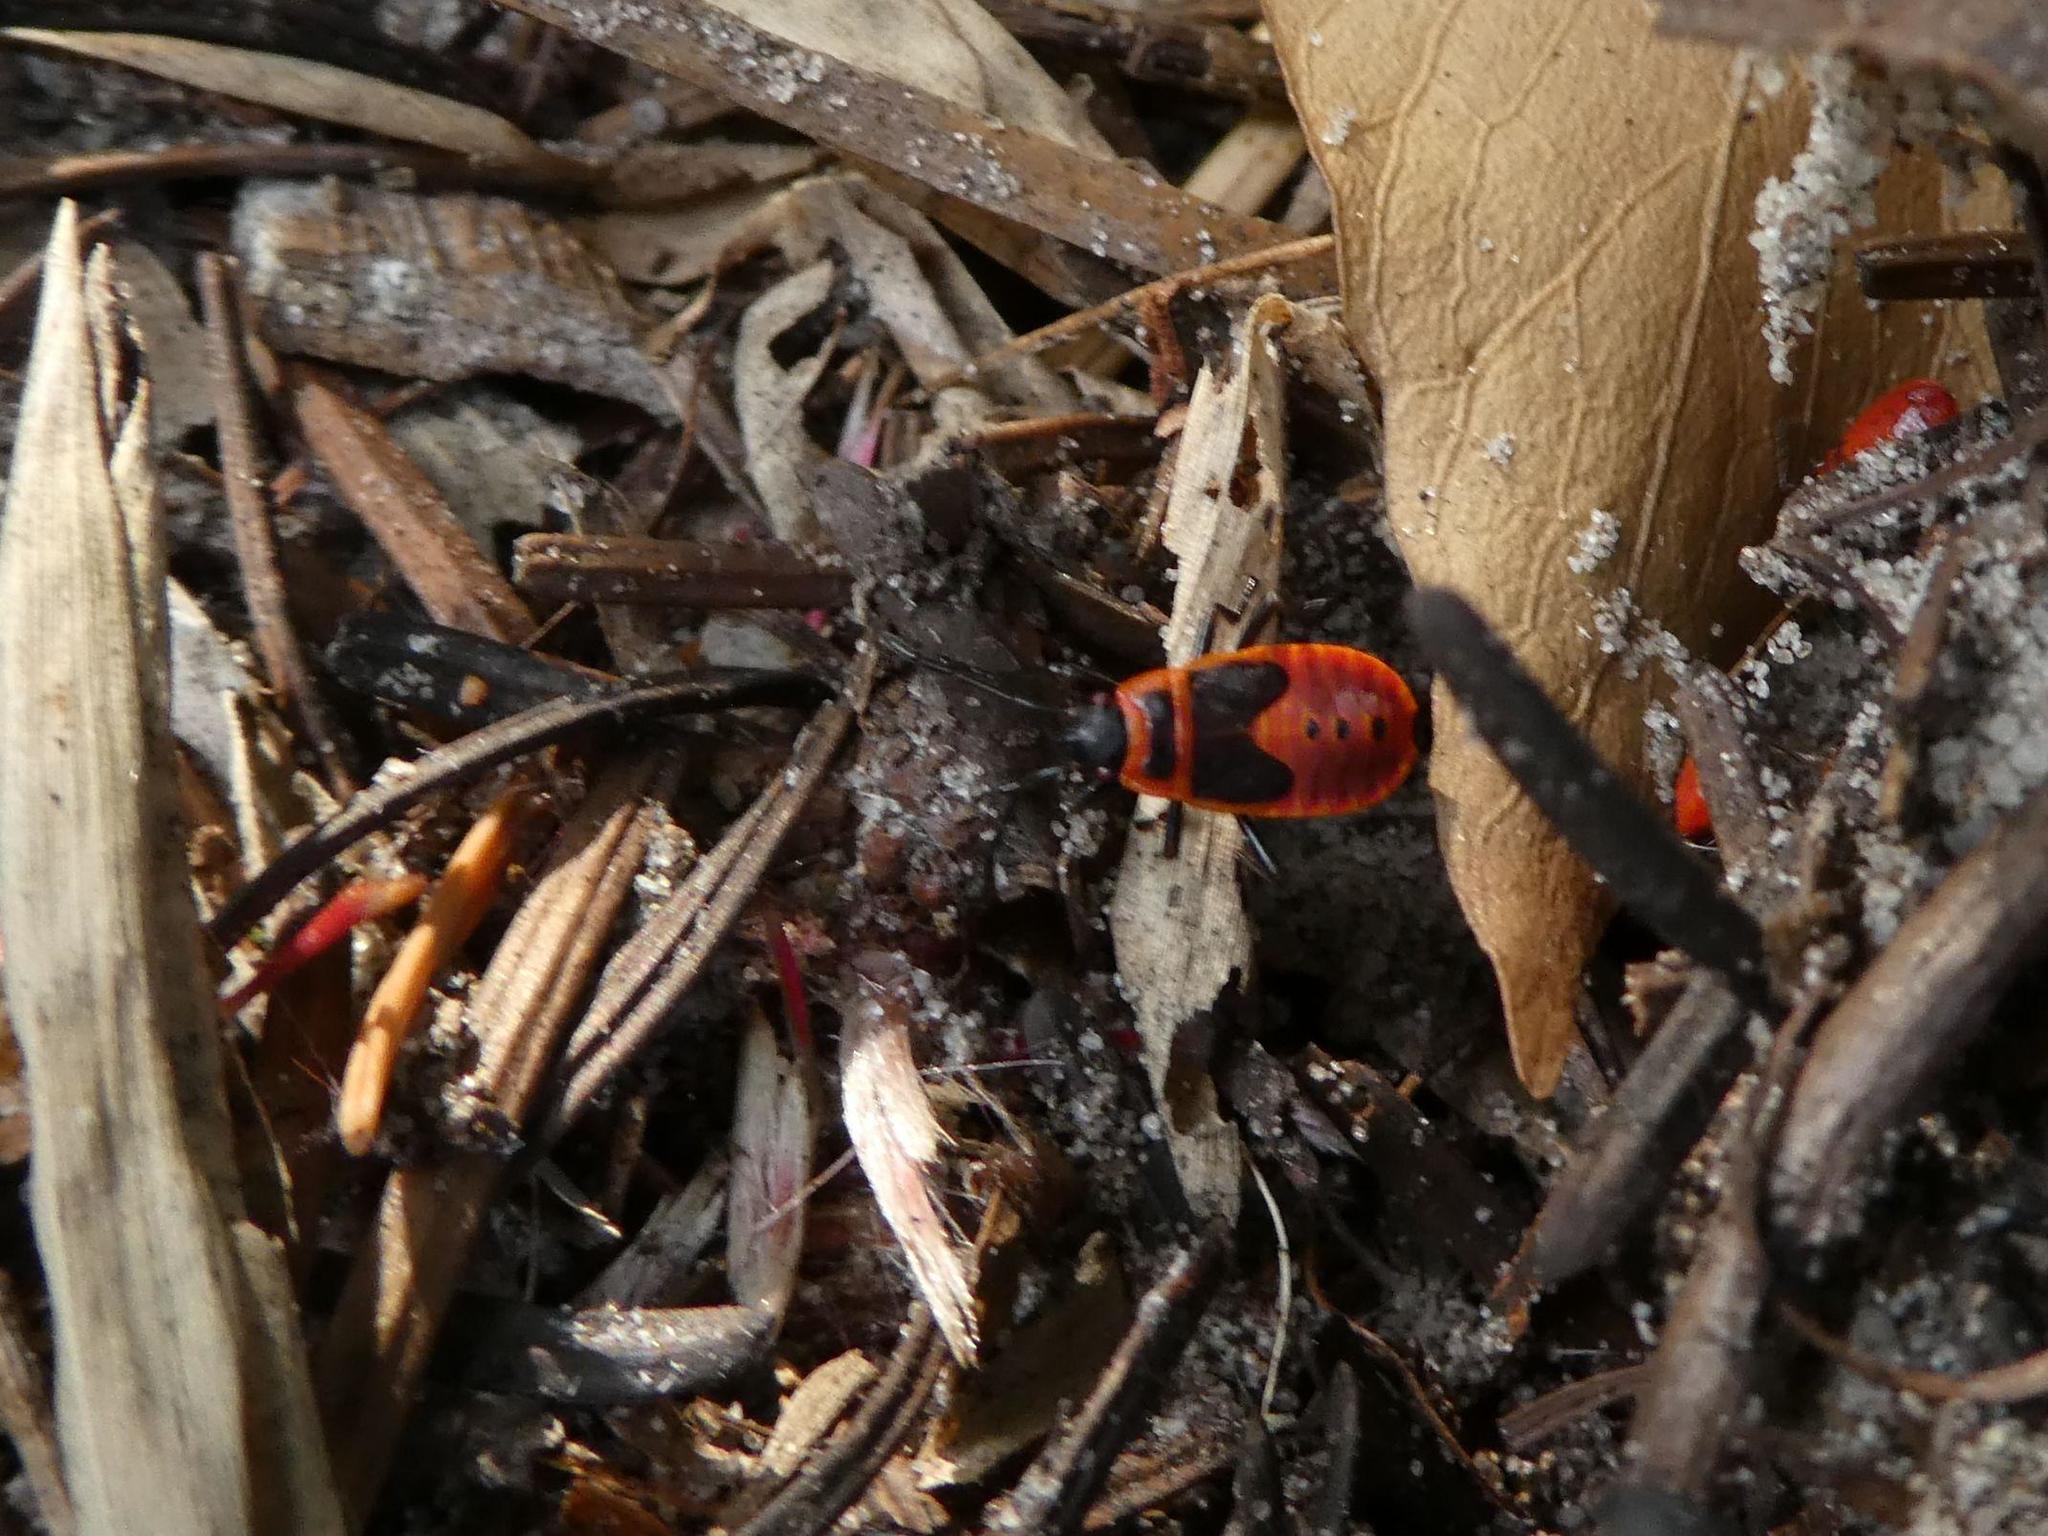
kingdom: Animalia
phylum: Arthropoda
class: Insecta
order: Hemiptera
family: Pyrrhocoridae
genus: Pyrrhocoris
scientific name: Pyrrhocoris apterus
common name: Firebug
